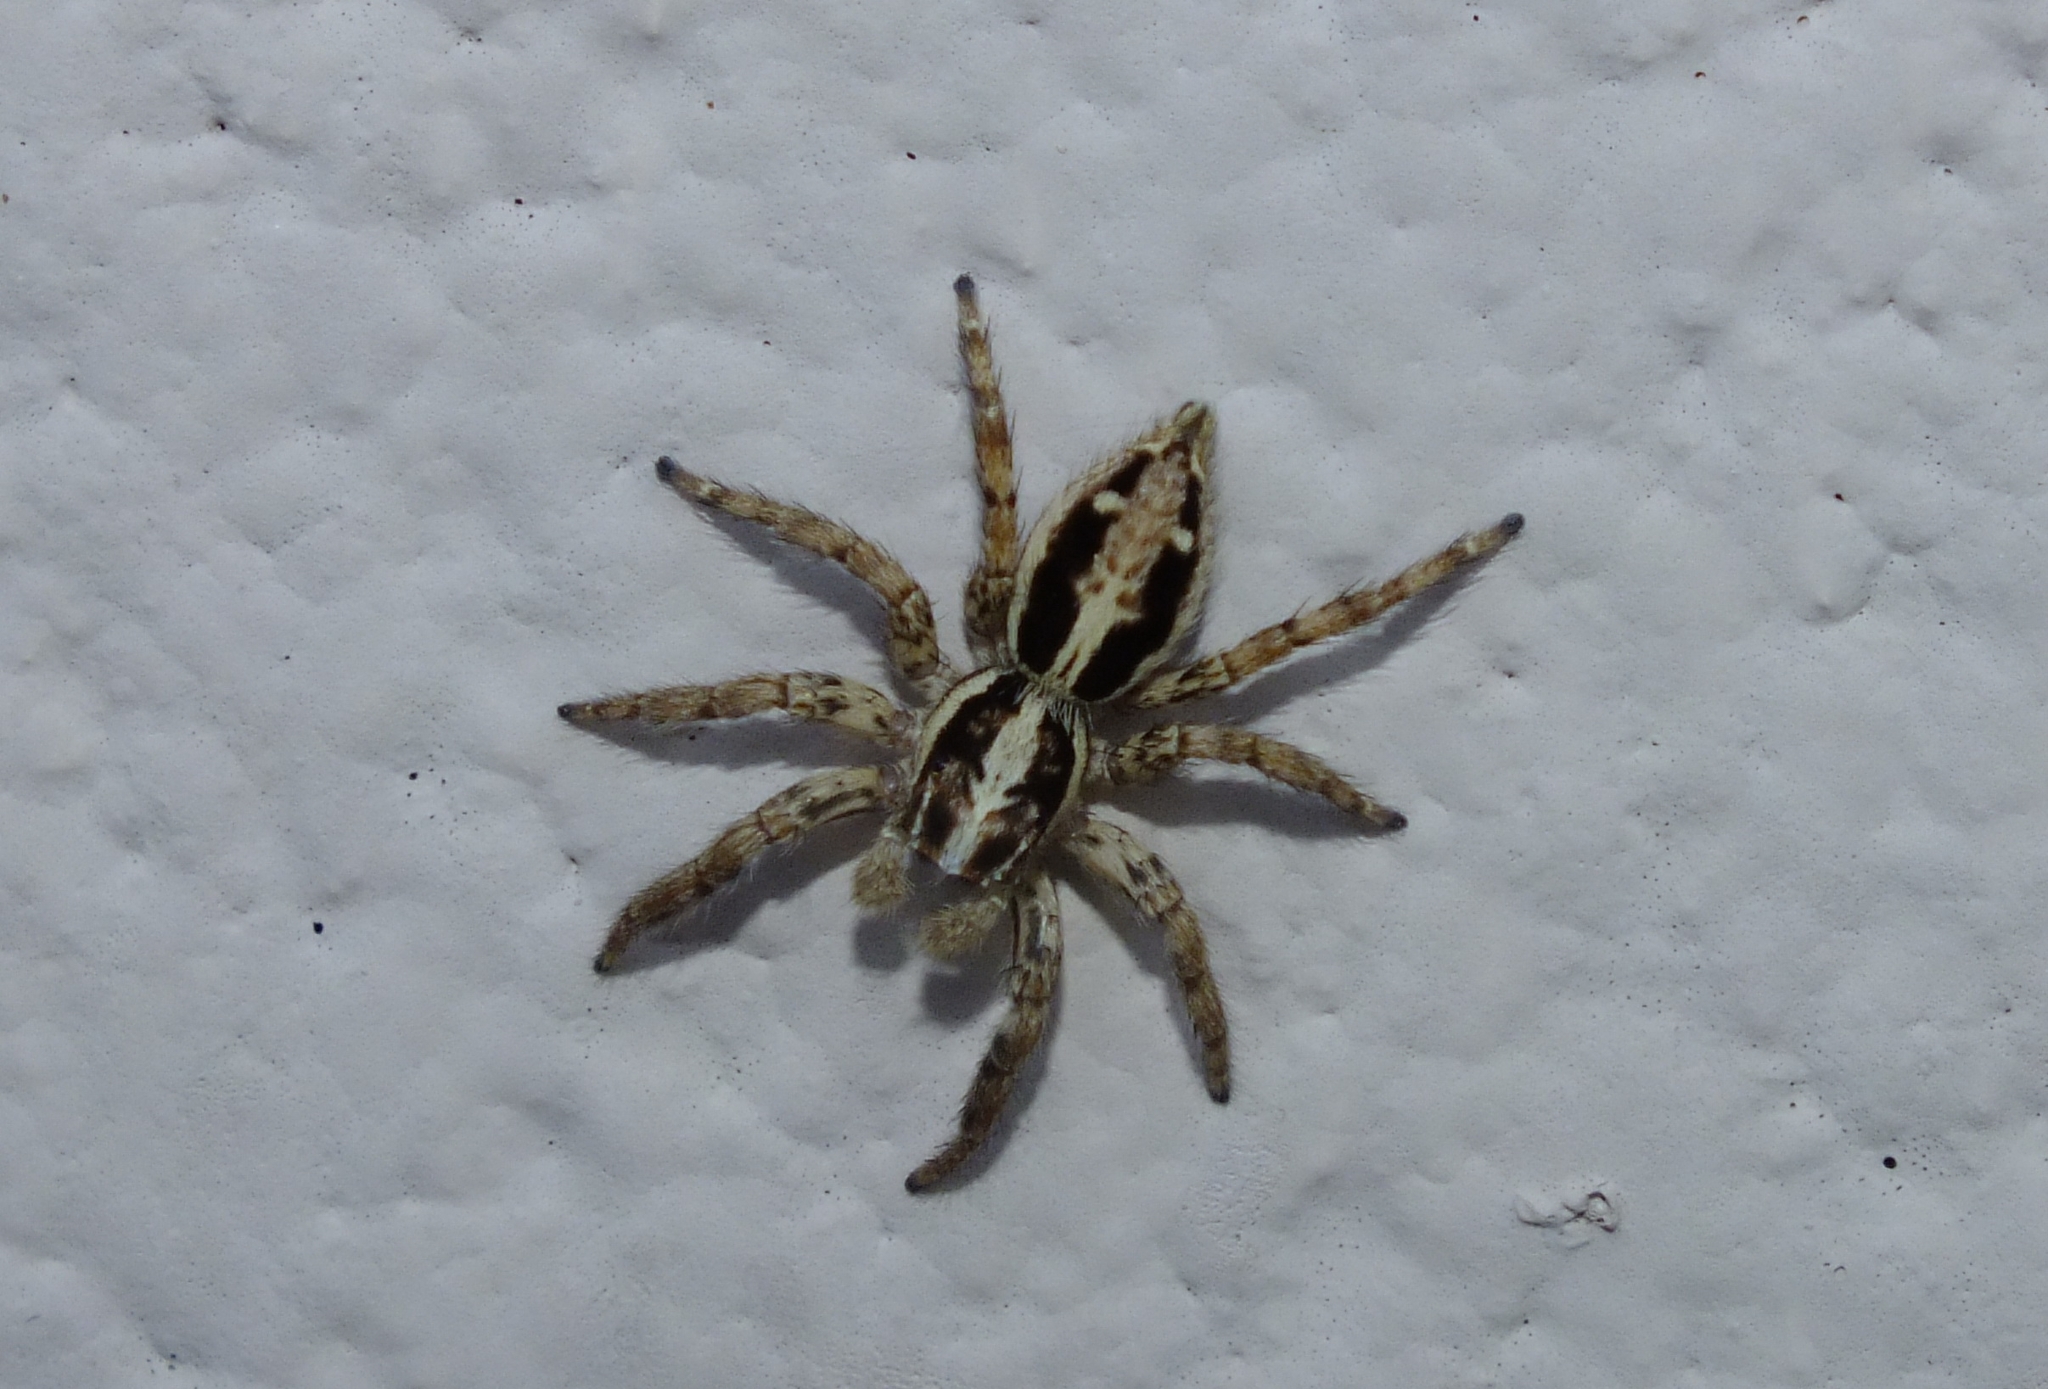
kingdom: Animalia
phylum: Arthropoda
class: Arachnida
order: Araneae
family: Salticidae
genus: Plexippus
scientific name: Plexippus paykulli
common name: Pantropical jumper
